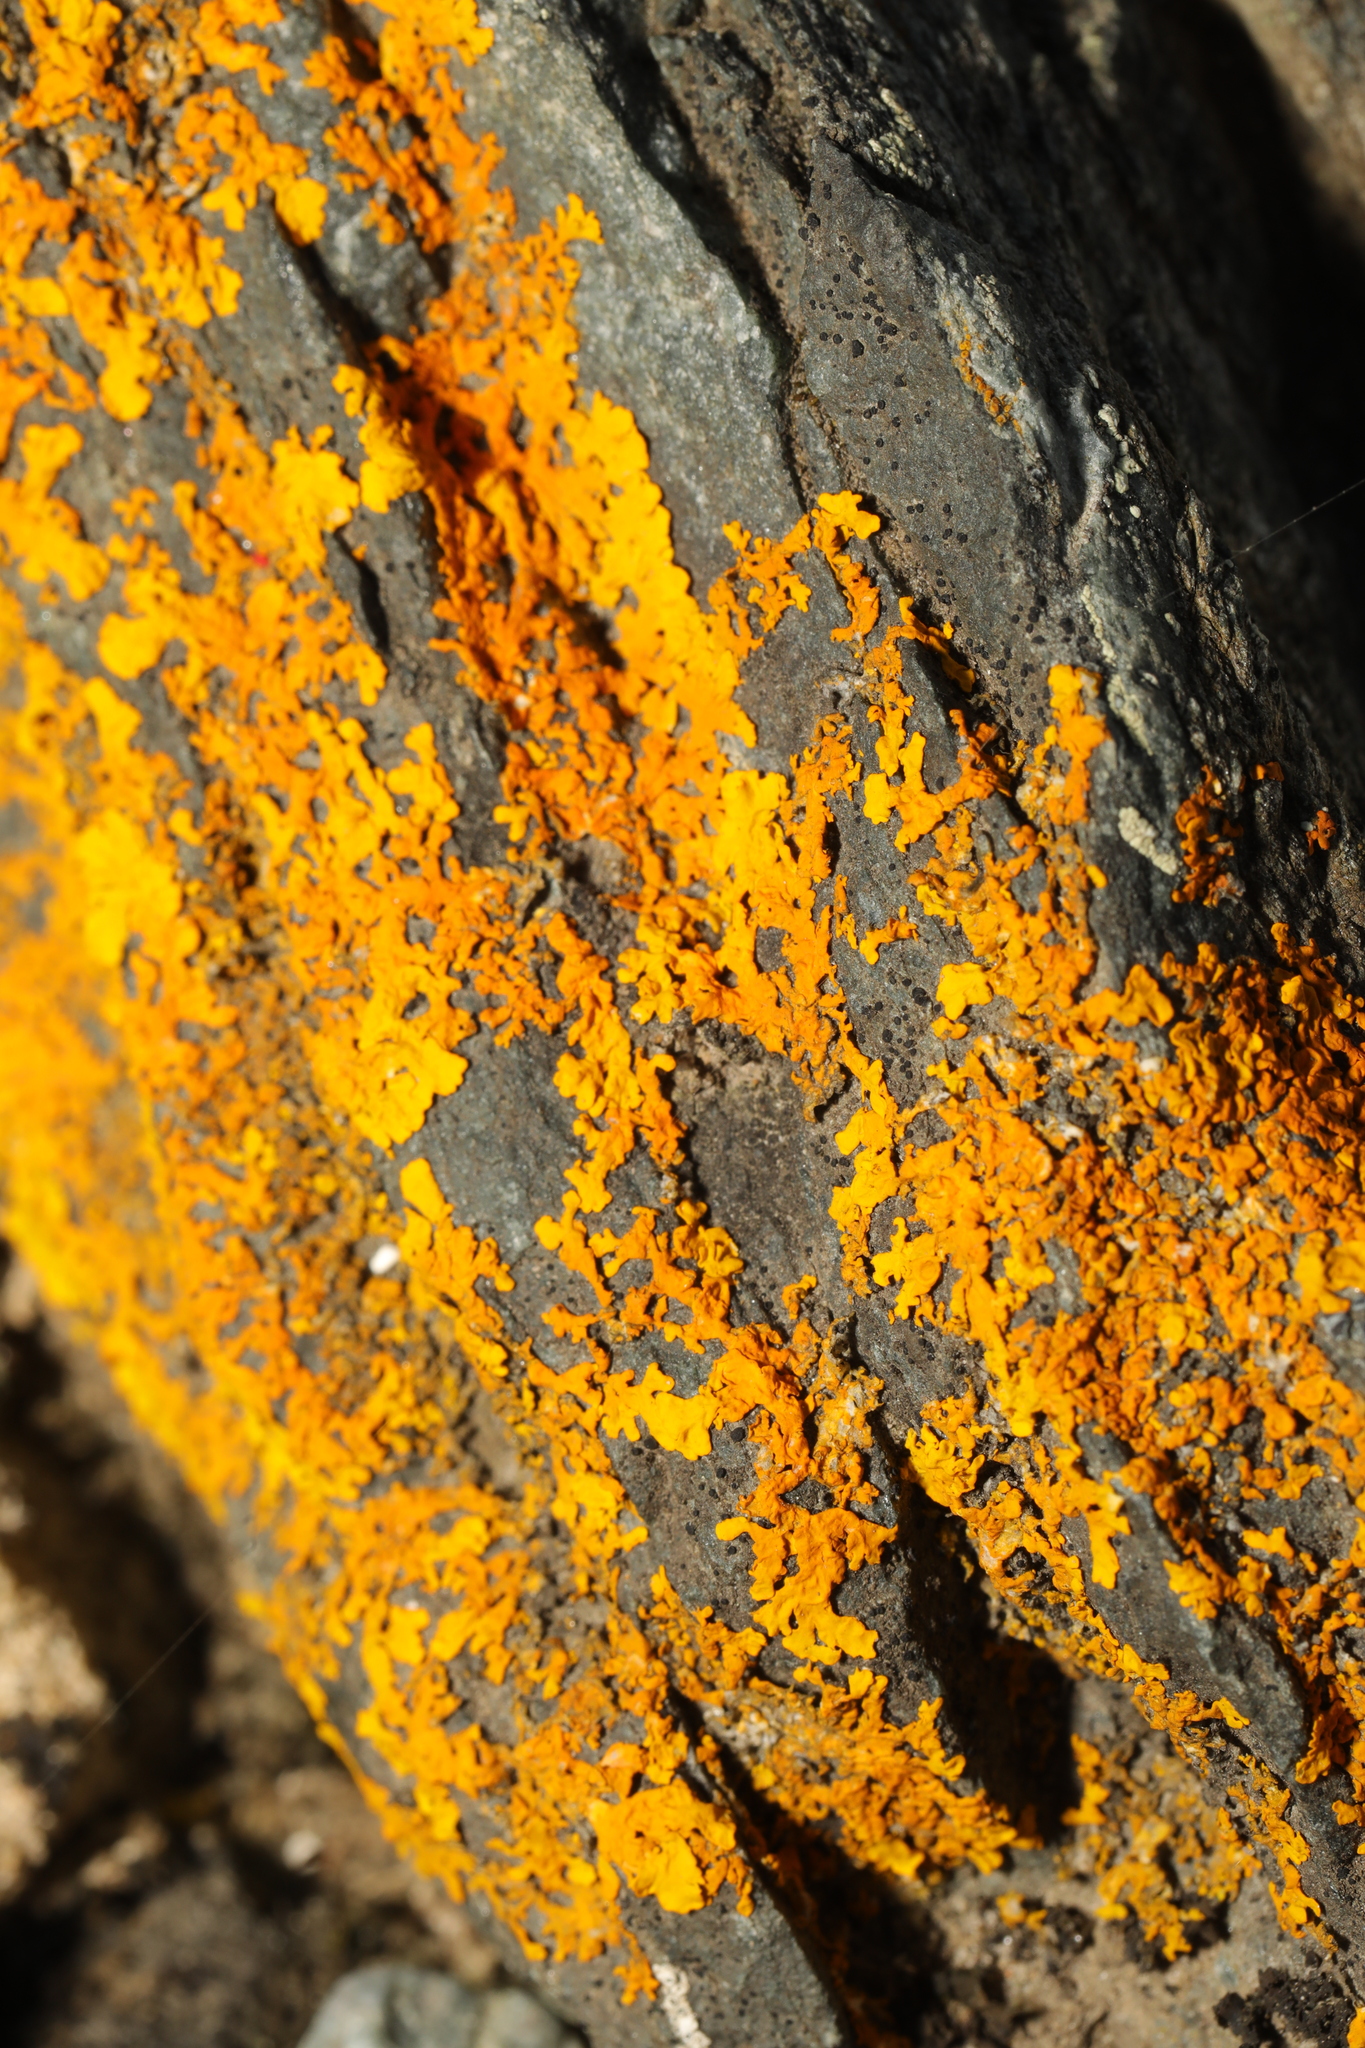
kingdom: Fungi
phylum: Ascomycota
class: Lecanoromycetes
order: Teloschistales
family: Teloschistaceae
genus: Xanthoria
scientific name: Xanthoria aureola
